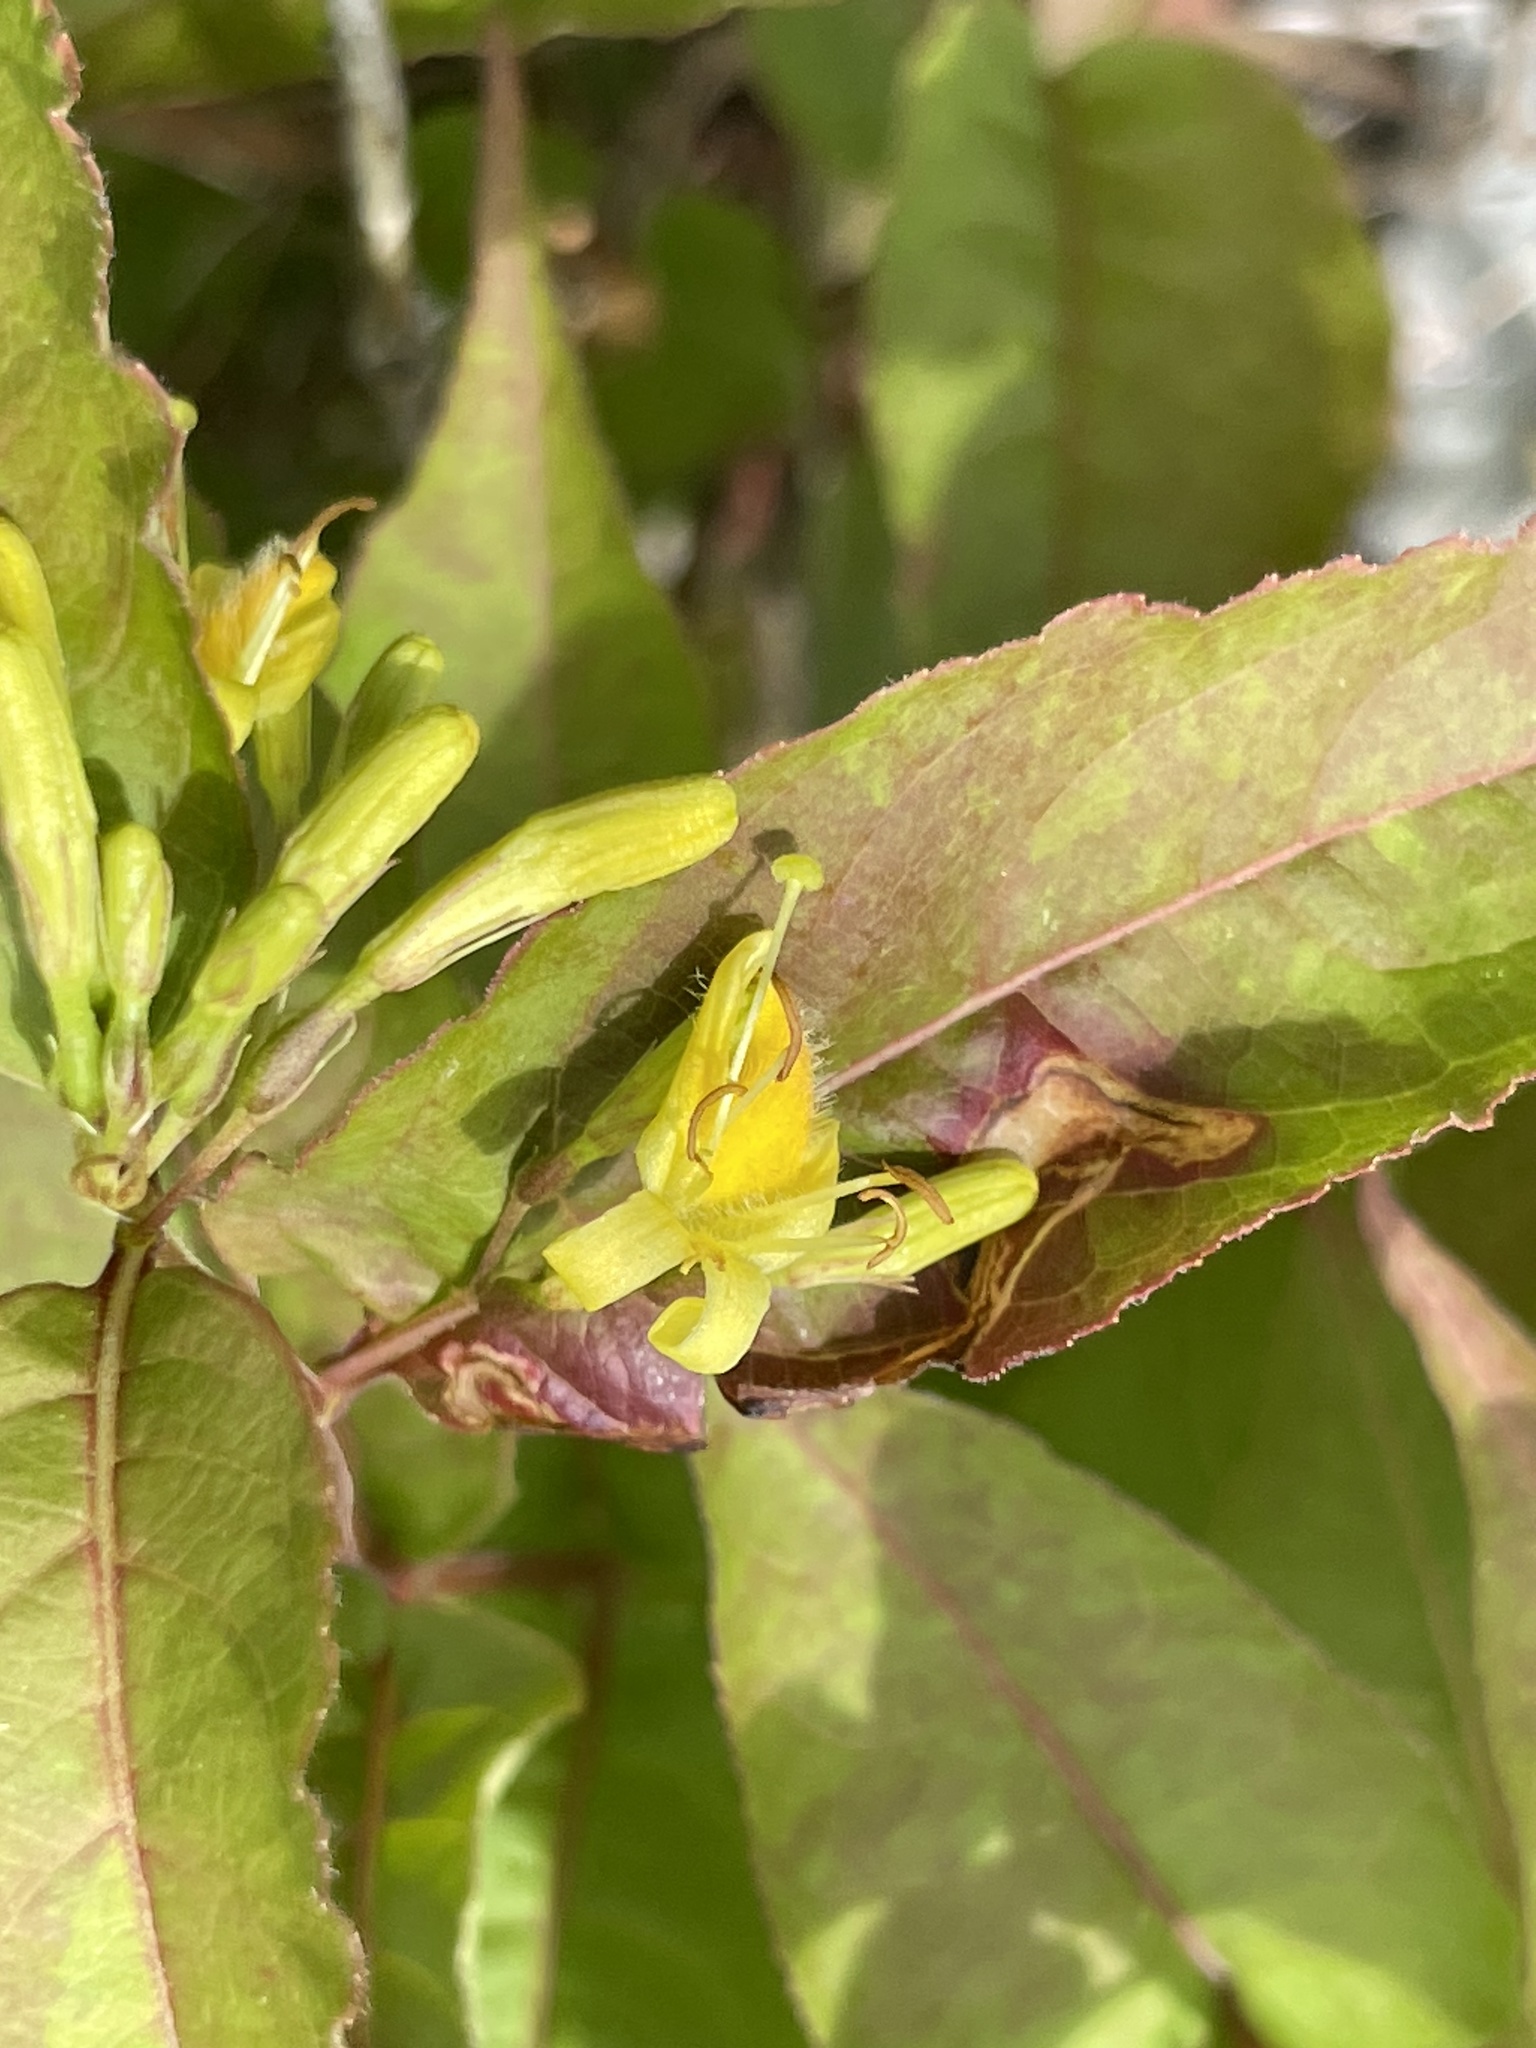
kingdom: Plantae
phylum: Tracheophyta
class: Magnoliopsida
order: Dipsacales
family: Caprifoliaceae
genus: Diervilla
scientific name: Diervilla lonicera
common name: Bush-honeysuckle
